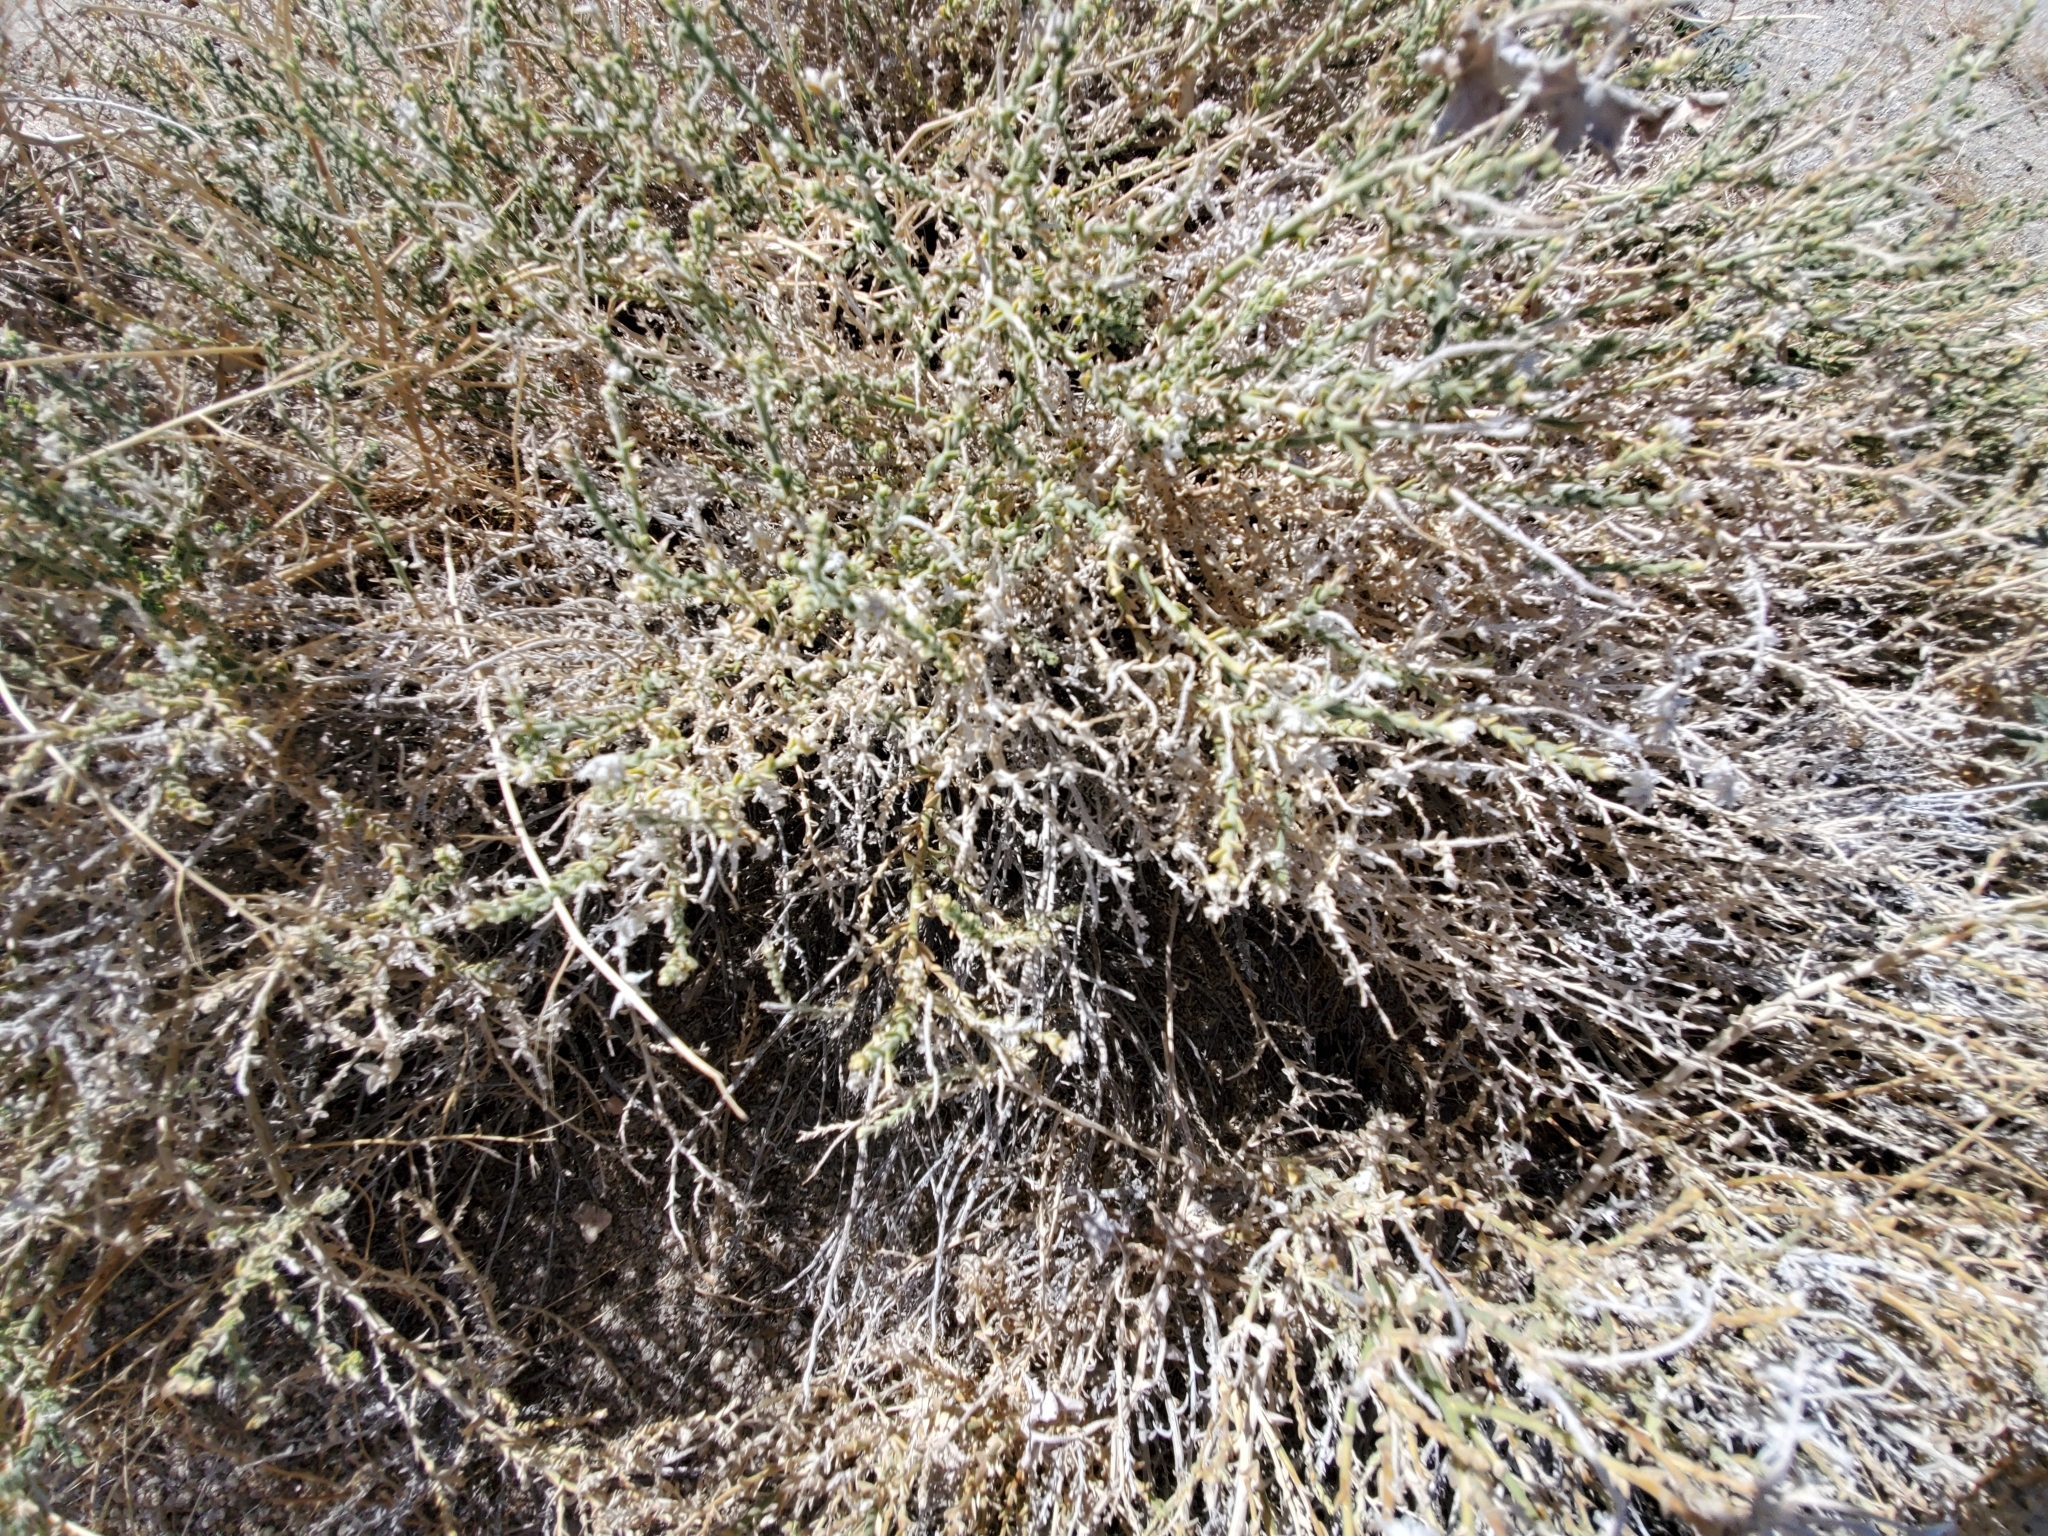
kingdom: Plantae
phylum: Tracheophyta
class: Magnoliopsida
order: Cornales
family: Loasaceae
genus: Petalonyx
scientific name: Petalonyx thurberi
